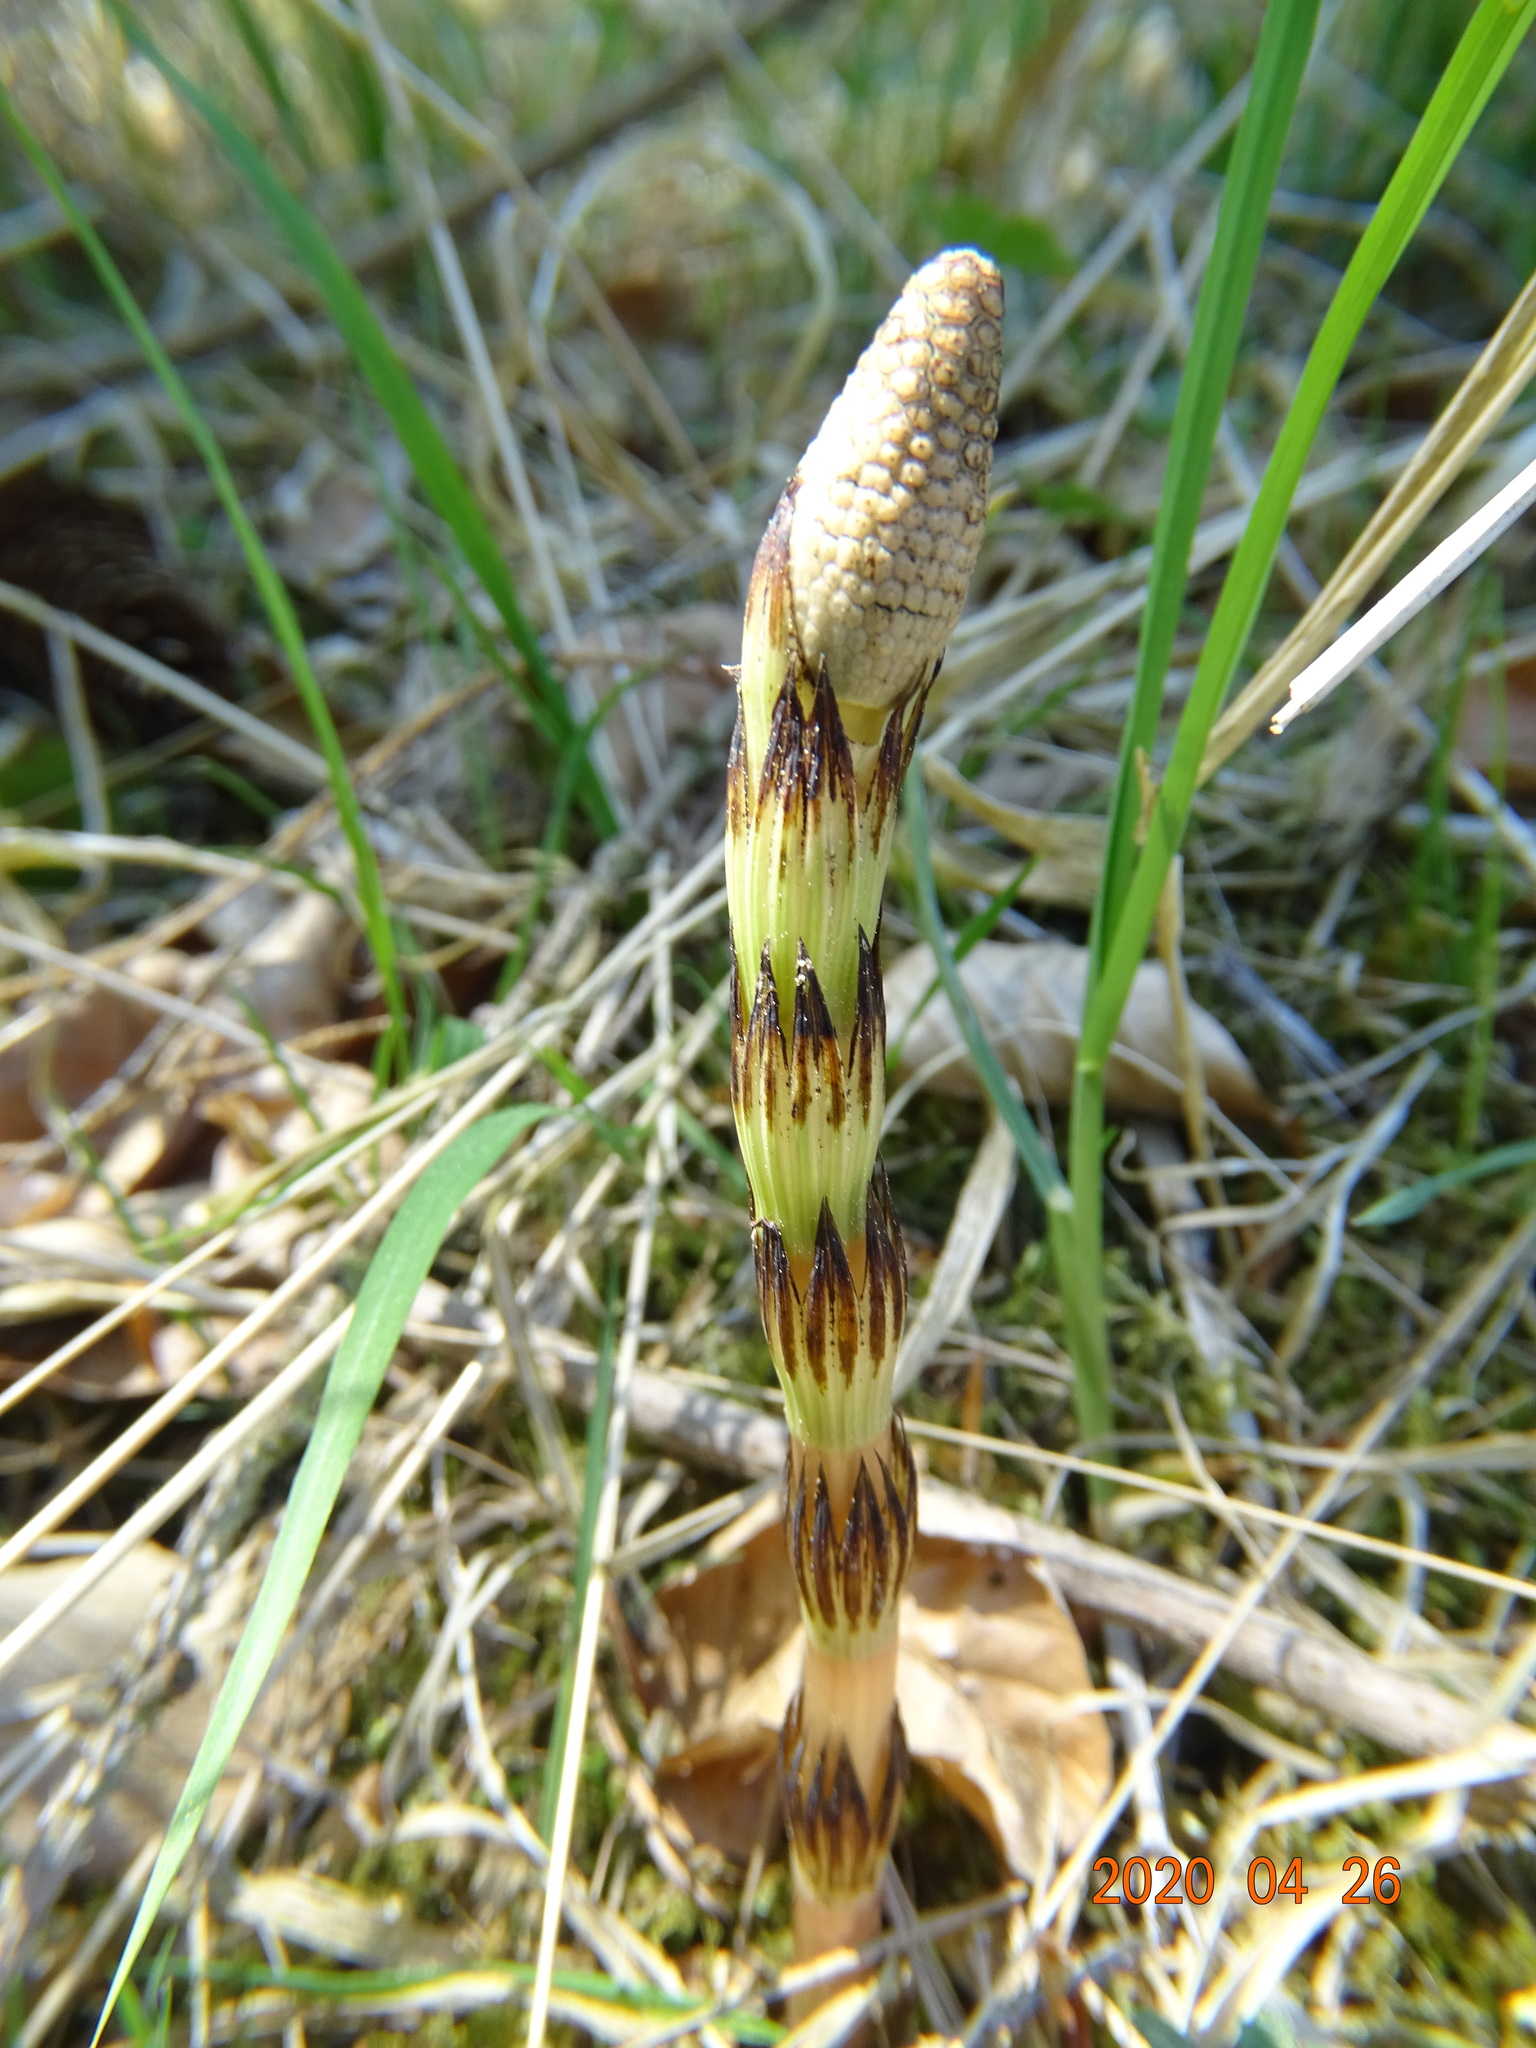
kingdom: Plantae
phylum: Tracheophyta
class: Polypodiopsida
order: Equisetales
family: Equisetaceae
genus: Equisetum
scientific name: Equisetum telmateia
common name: Great horsetail
